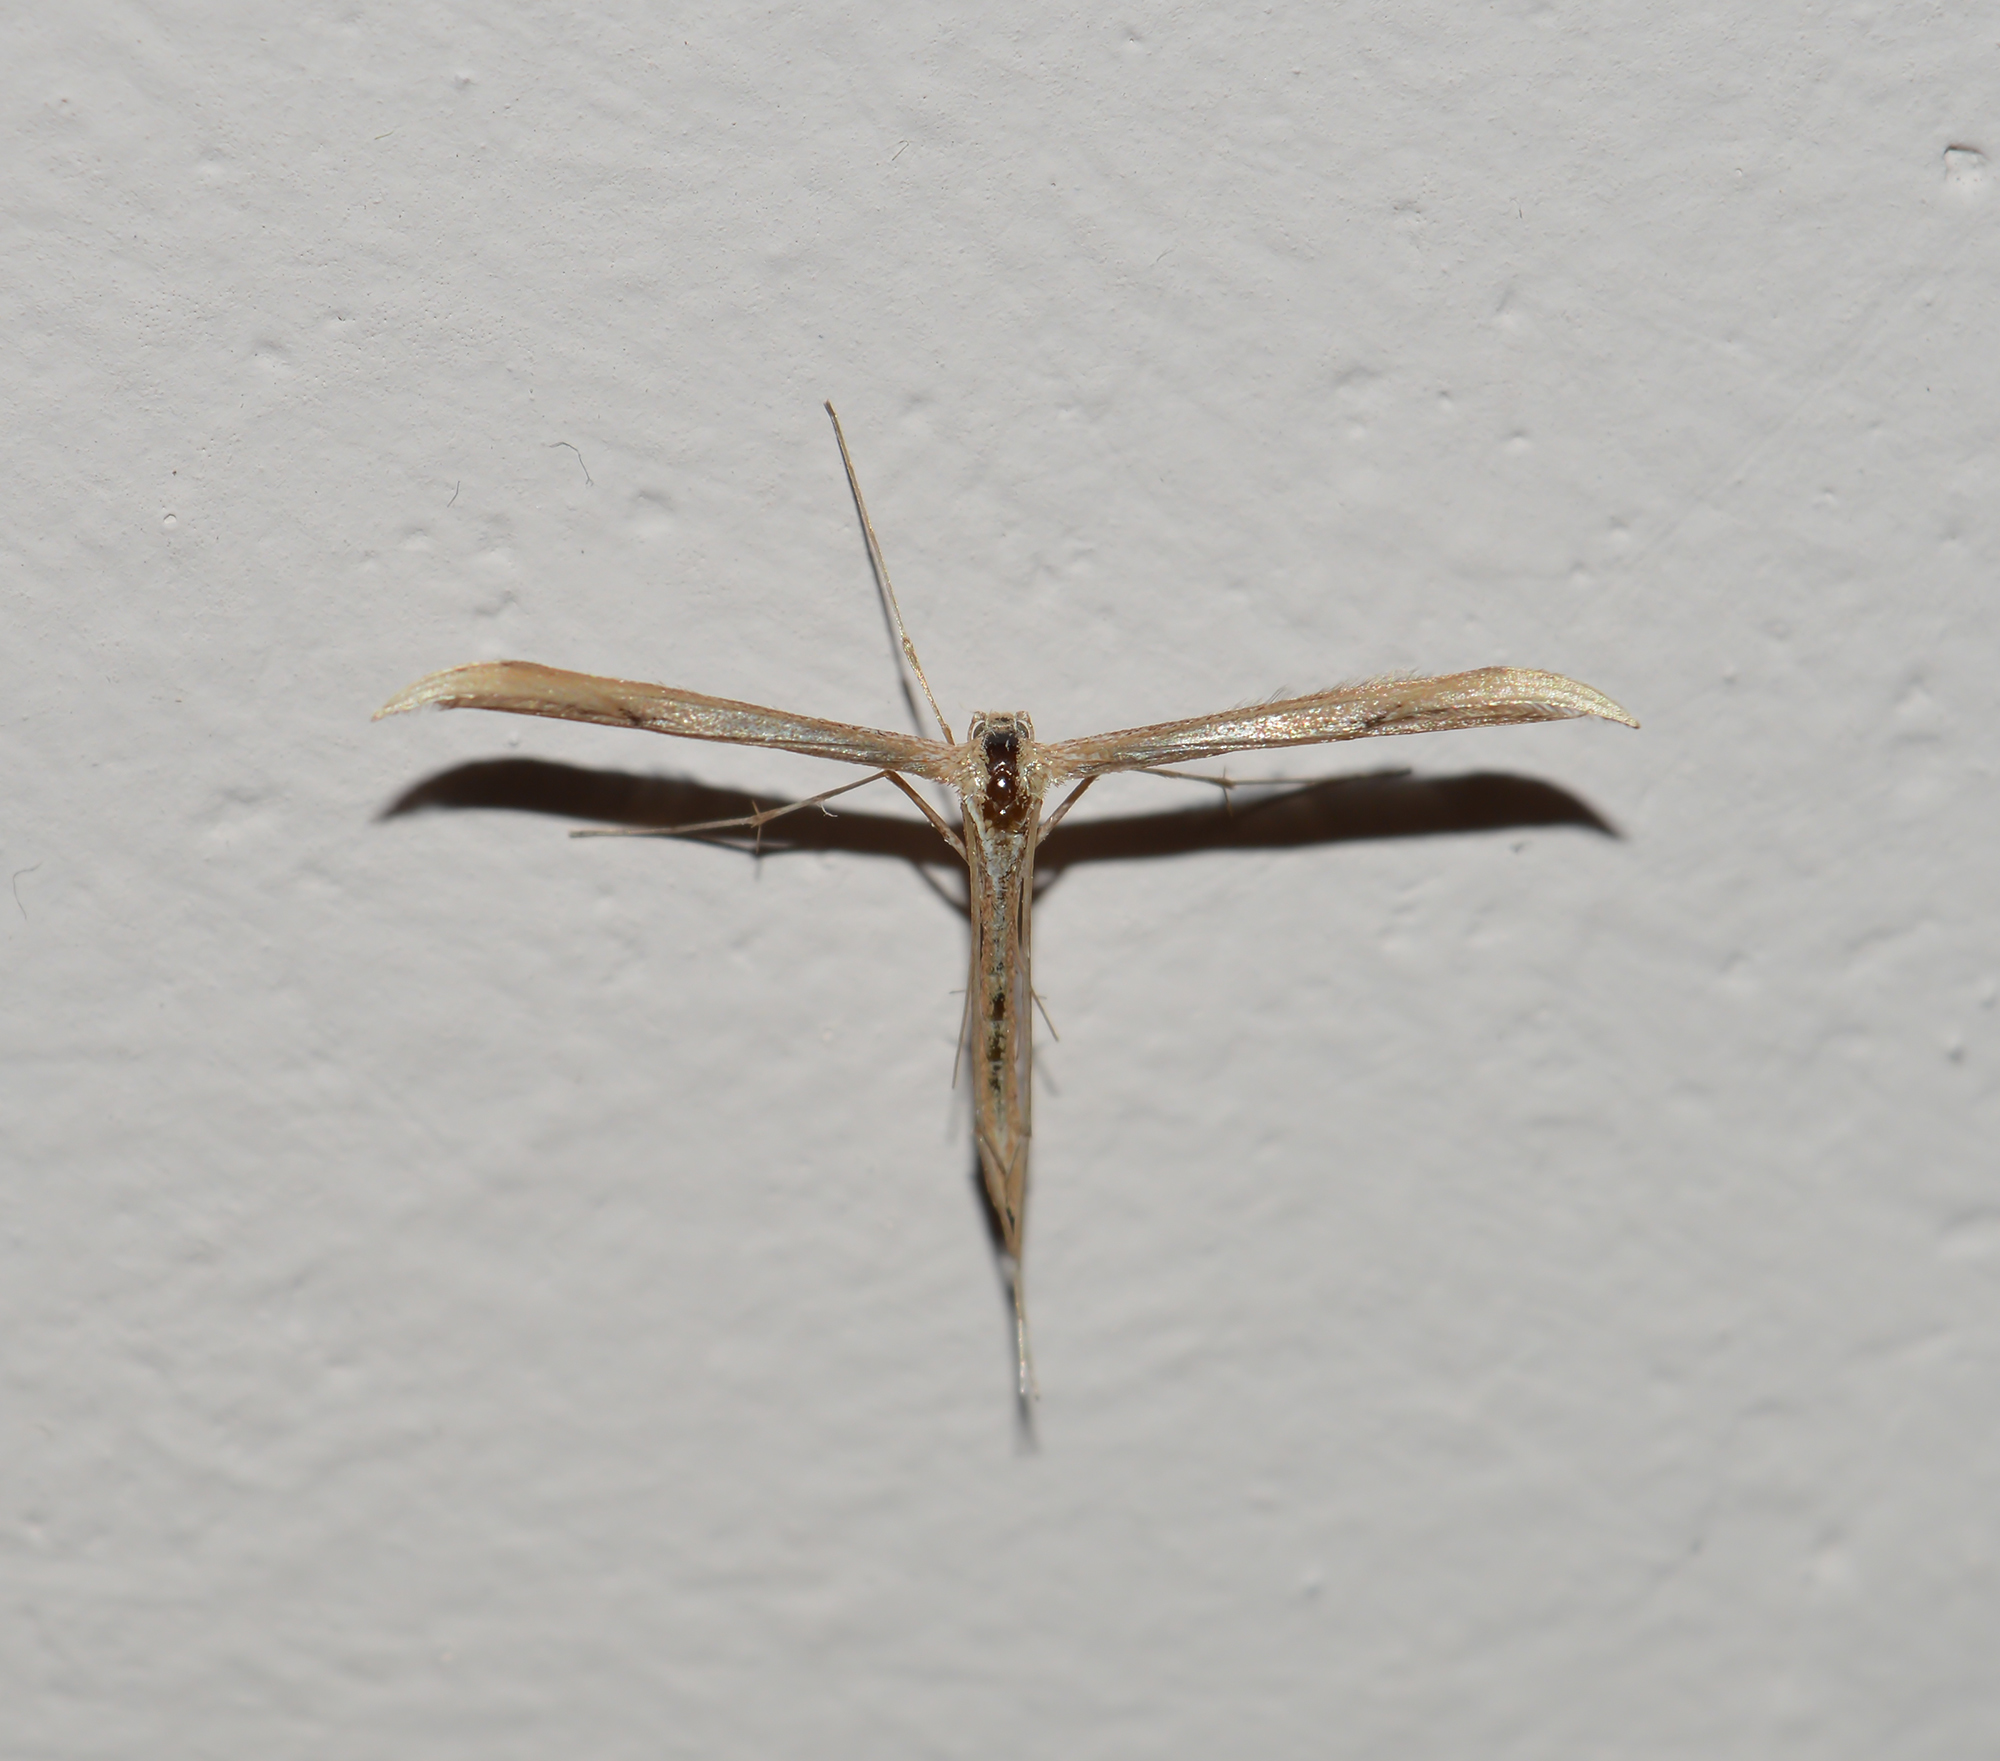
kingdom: Animalia
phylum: Arthropoda
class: Insecta
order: Lepidoptera
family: Pterophoridae
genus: Emmelina
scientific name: Emmelina monodactyla
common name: Common plume
